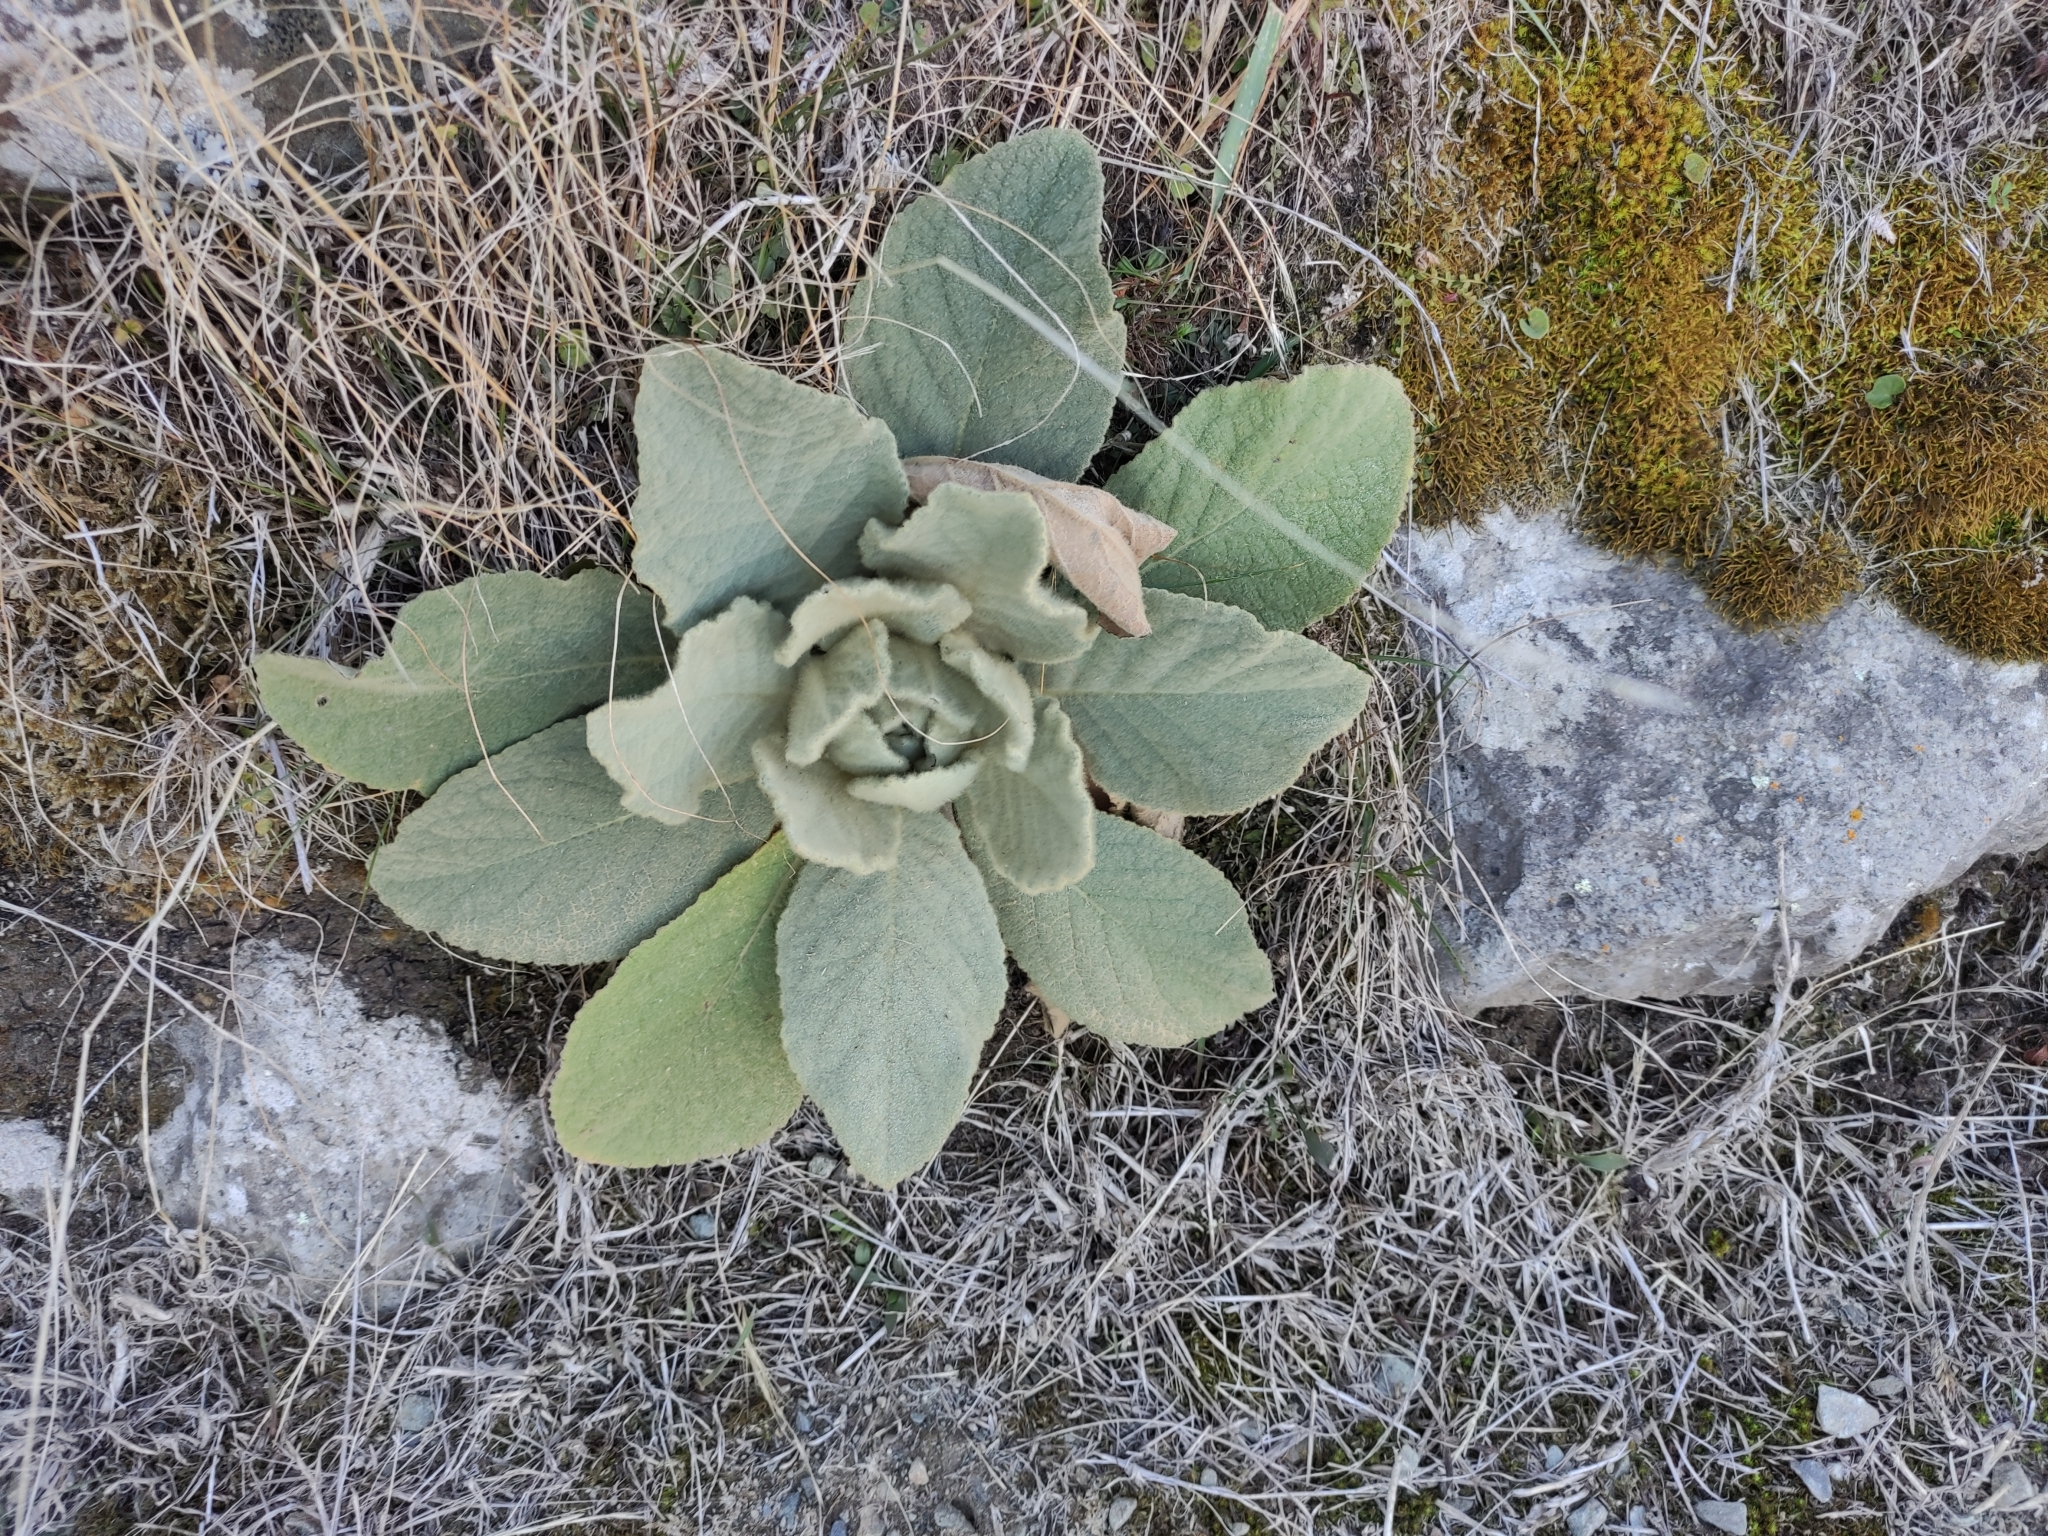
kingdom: Plantae
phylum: Tracheophyta
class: Magnoliopsida
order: Lamiales
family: Scrophulariaceae
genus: Verbascum
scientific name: Verbascum thapsus
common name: Common mullein
